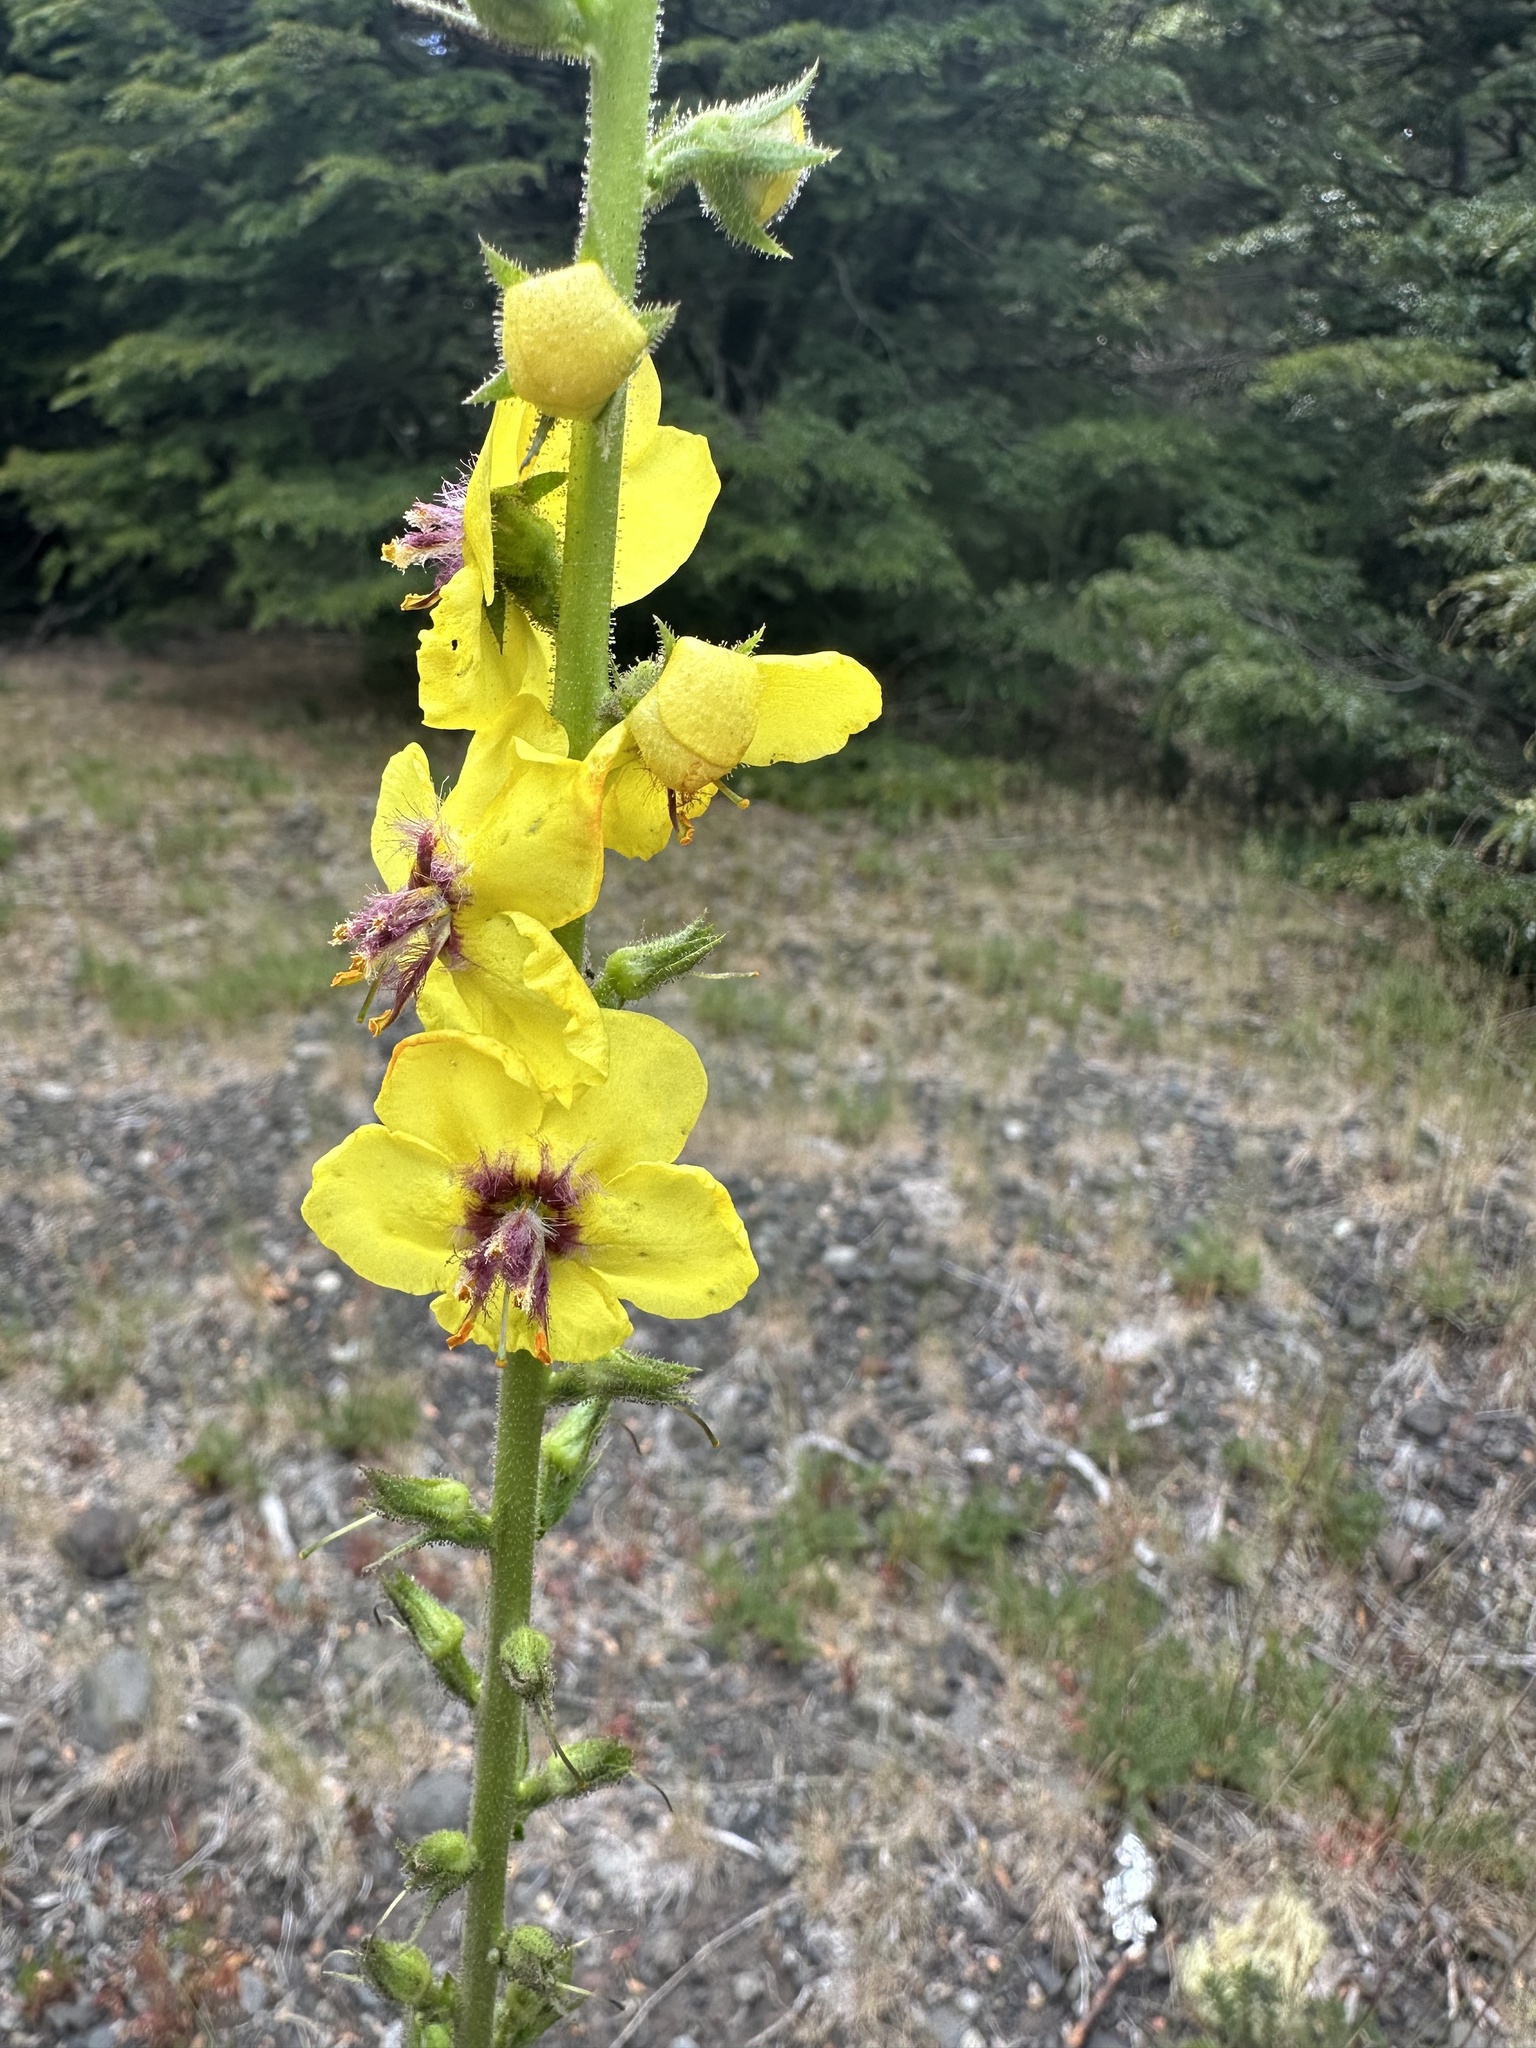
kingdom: Plantae
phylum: Tracheophyta
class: Magnoliopsida
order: Lamiales
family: Scrophulariaceae
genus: Verbascum
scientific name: Verbascum virgatum
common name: Twiggy mullein
